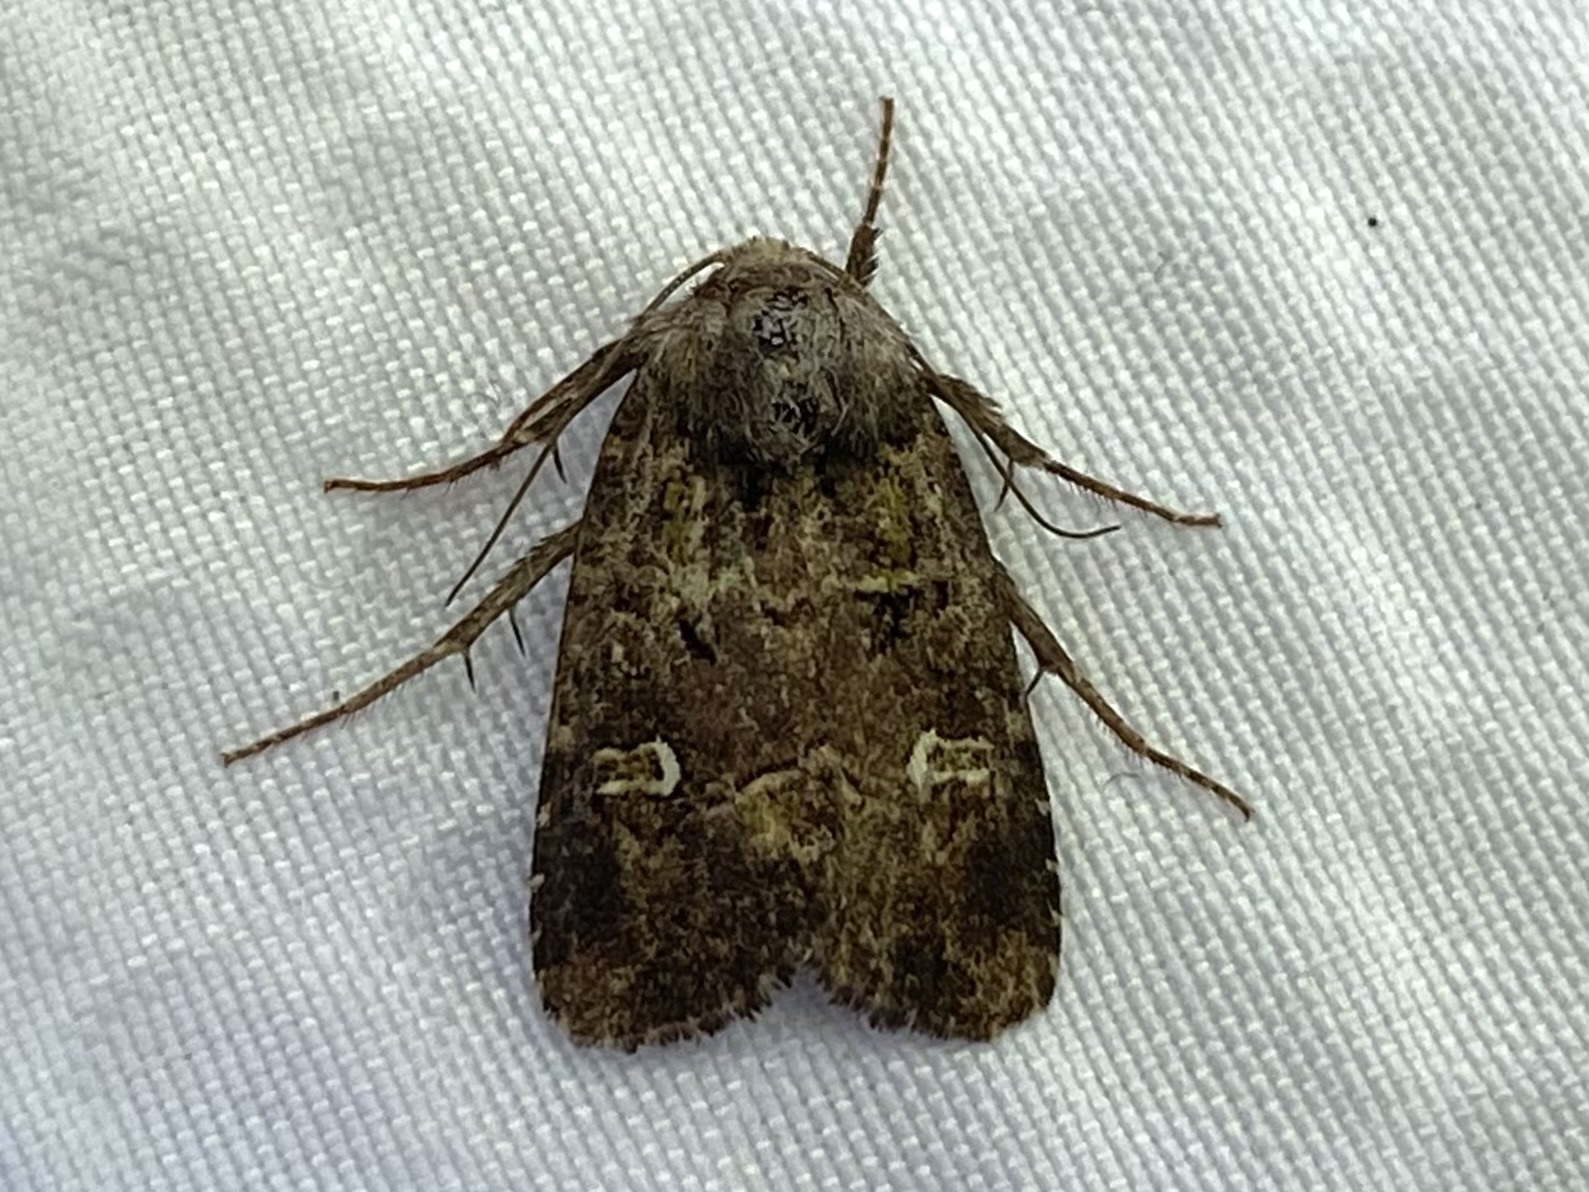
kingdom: Animalia
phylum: Arthropoda
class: Insecta
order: Lepidoptera
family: Noctuidae
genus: Lacinipolia
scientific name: Lacinipolia renigera
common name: Kidney-spotted minor
